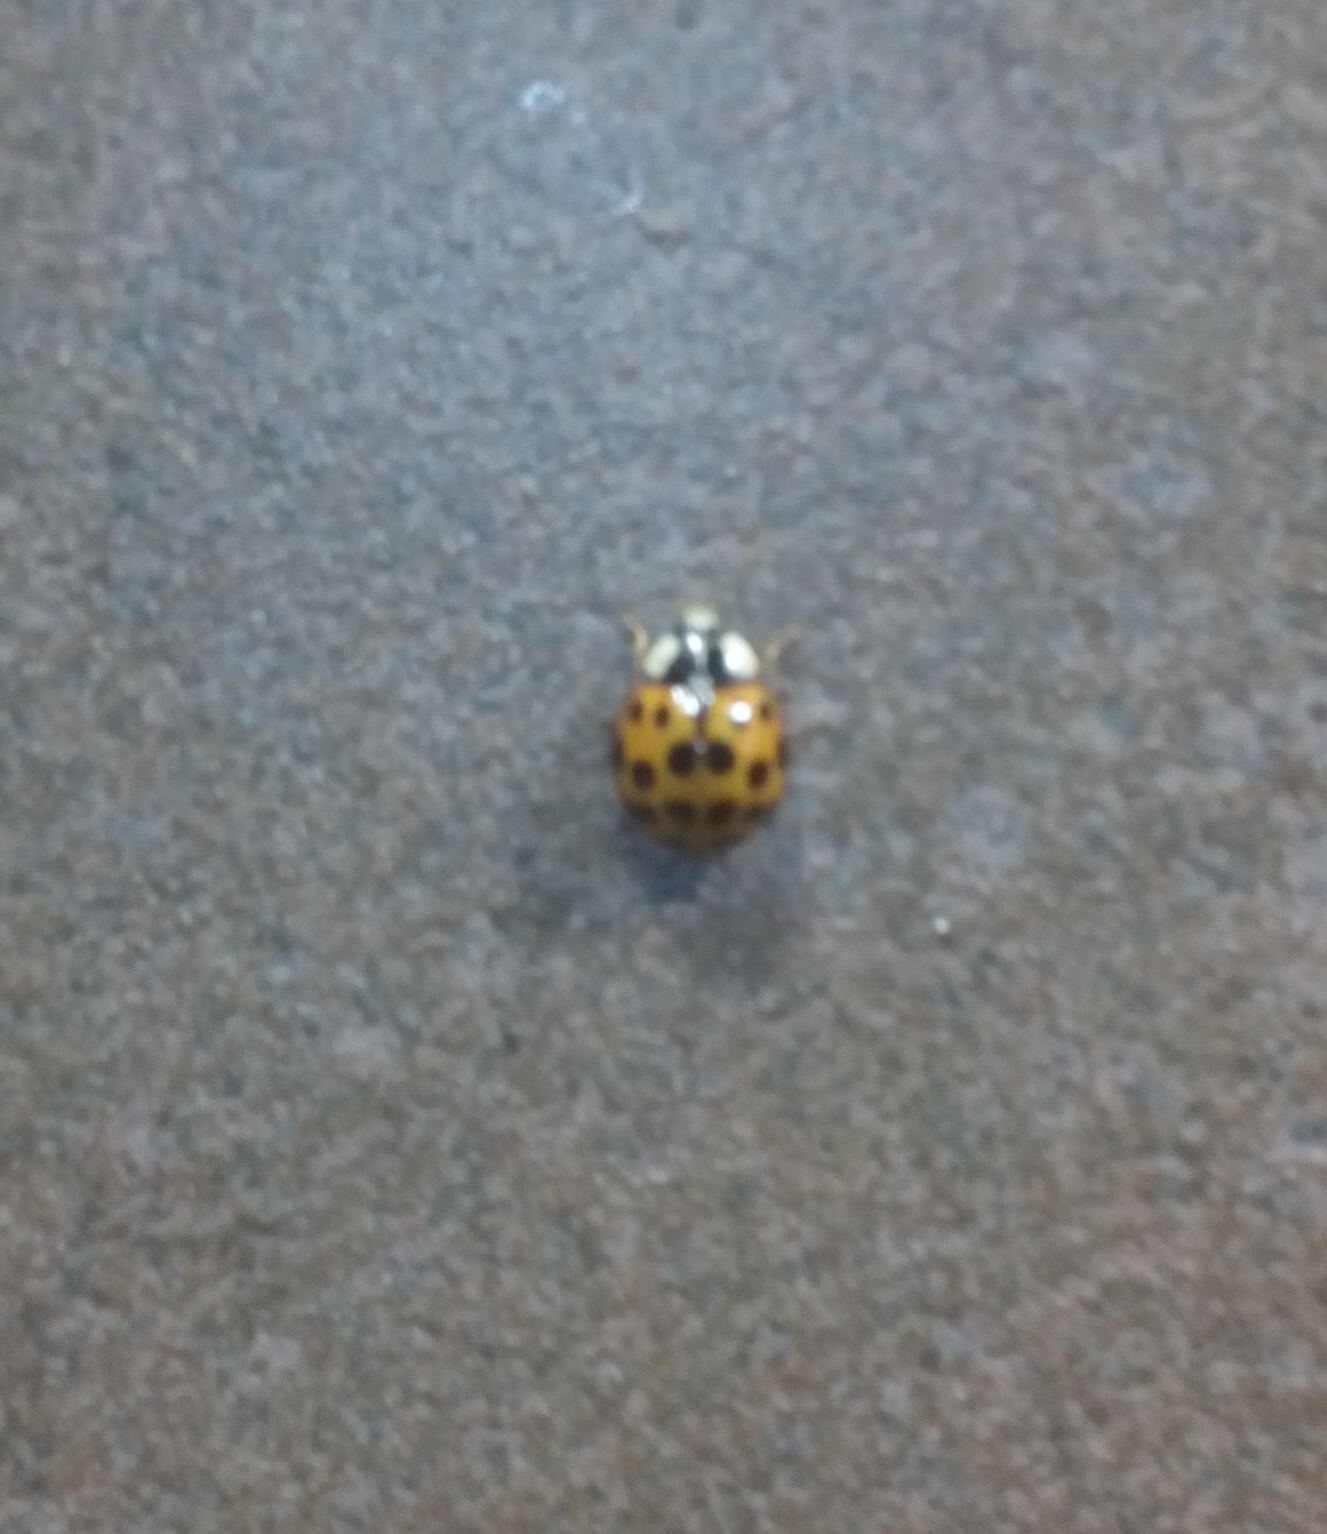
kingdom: Animalia
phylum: Arthropoda
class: Insecta
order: Coleoptera
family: Coccinellidae
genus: Harmonia
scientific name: Harmonia axyridis
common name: Harlequin ladybird
